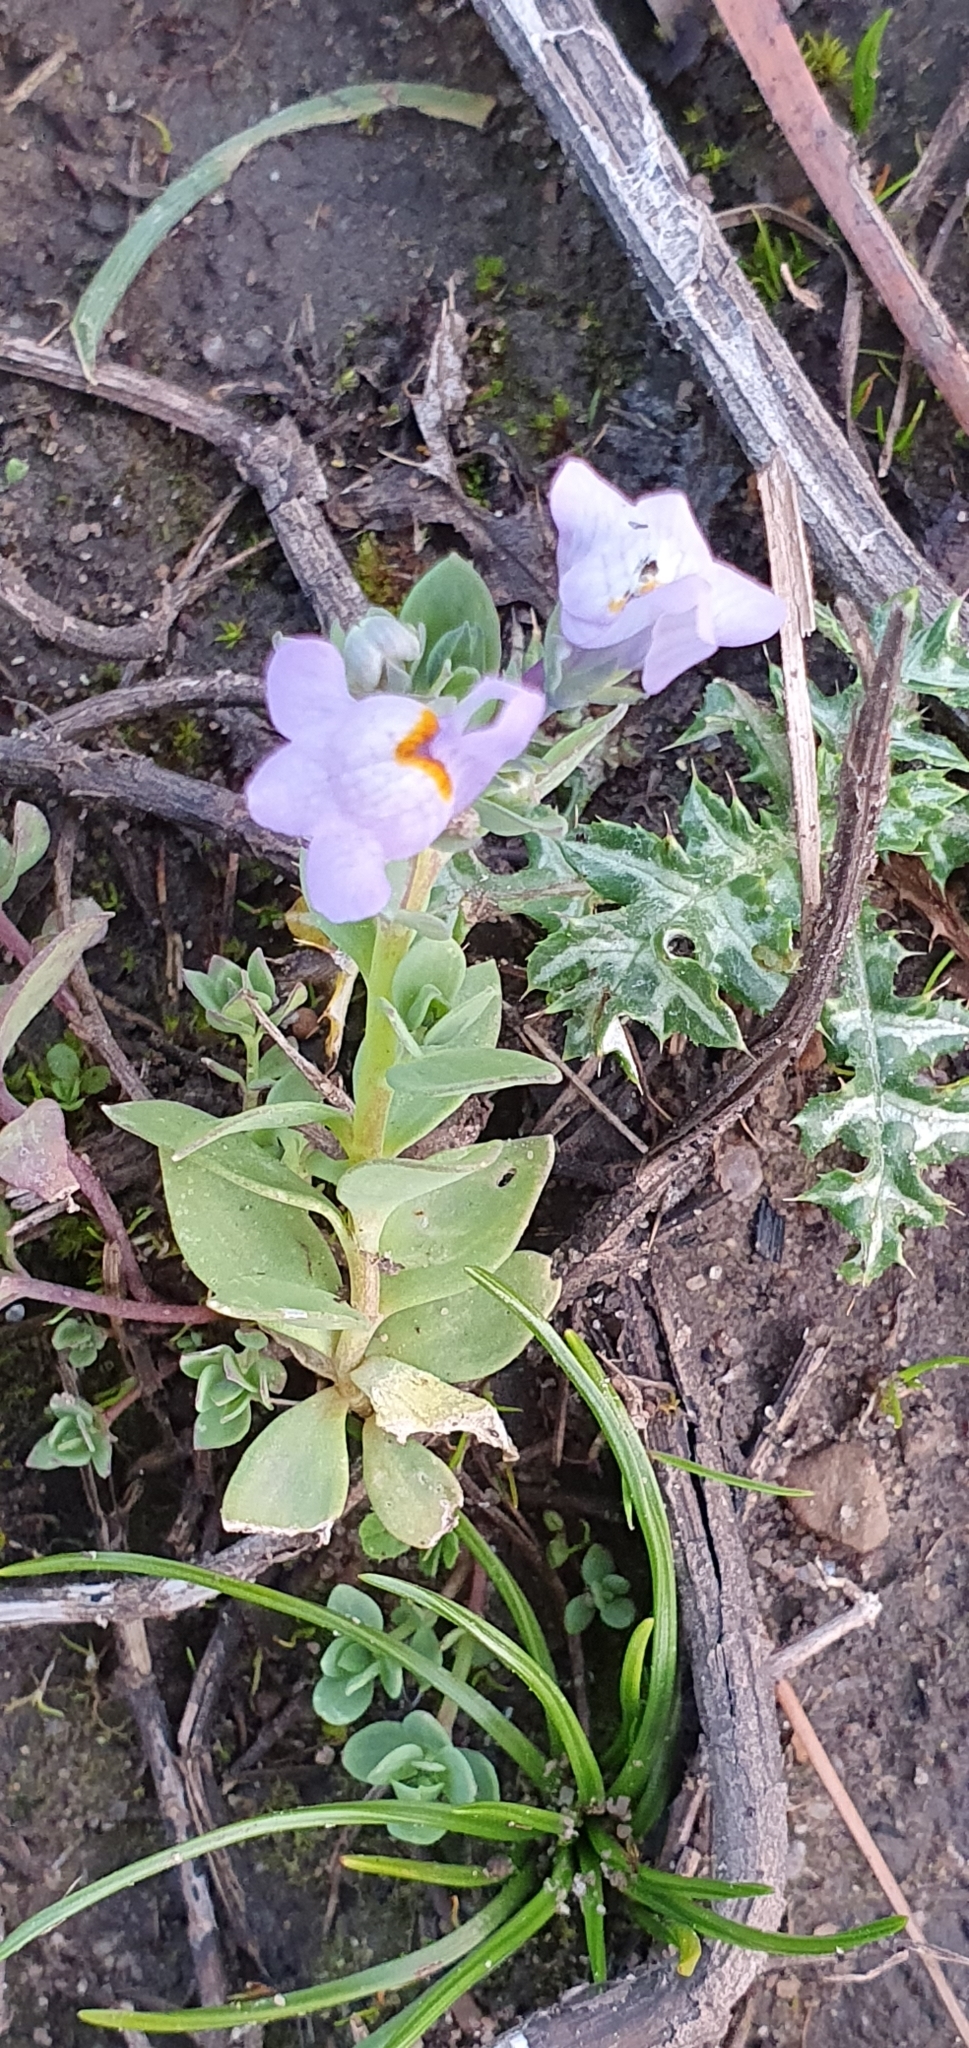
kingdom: Plantae
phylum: Tracheophyta
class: Magnoliopsida
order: Lamiales
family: Plantaginaceae
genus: Linaria
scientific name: Linaria reflexa
